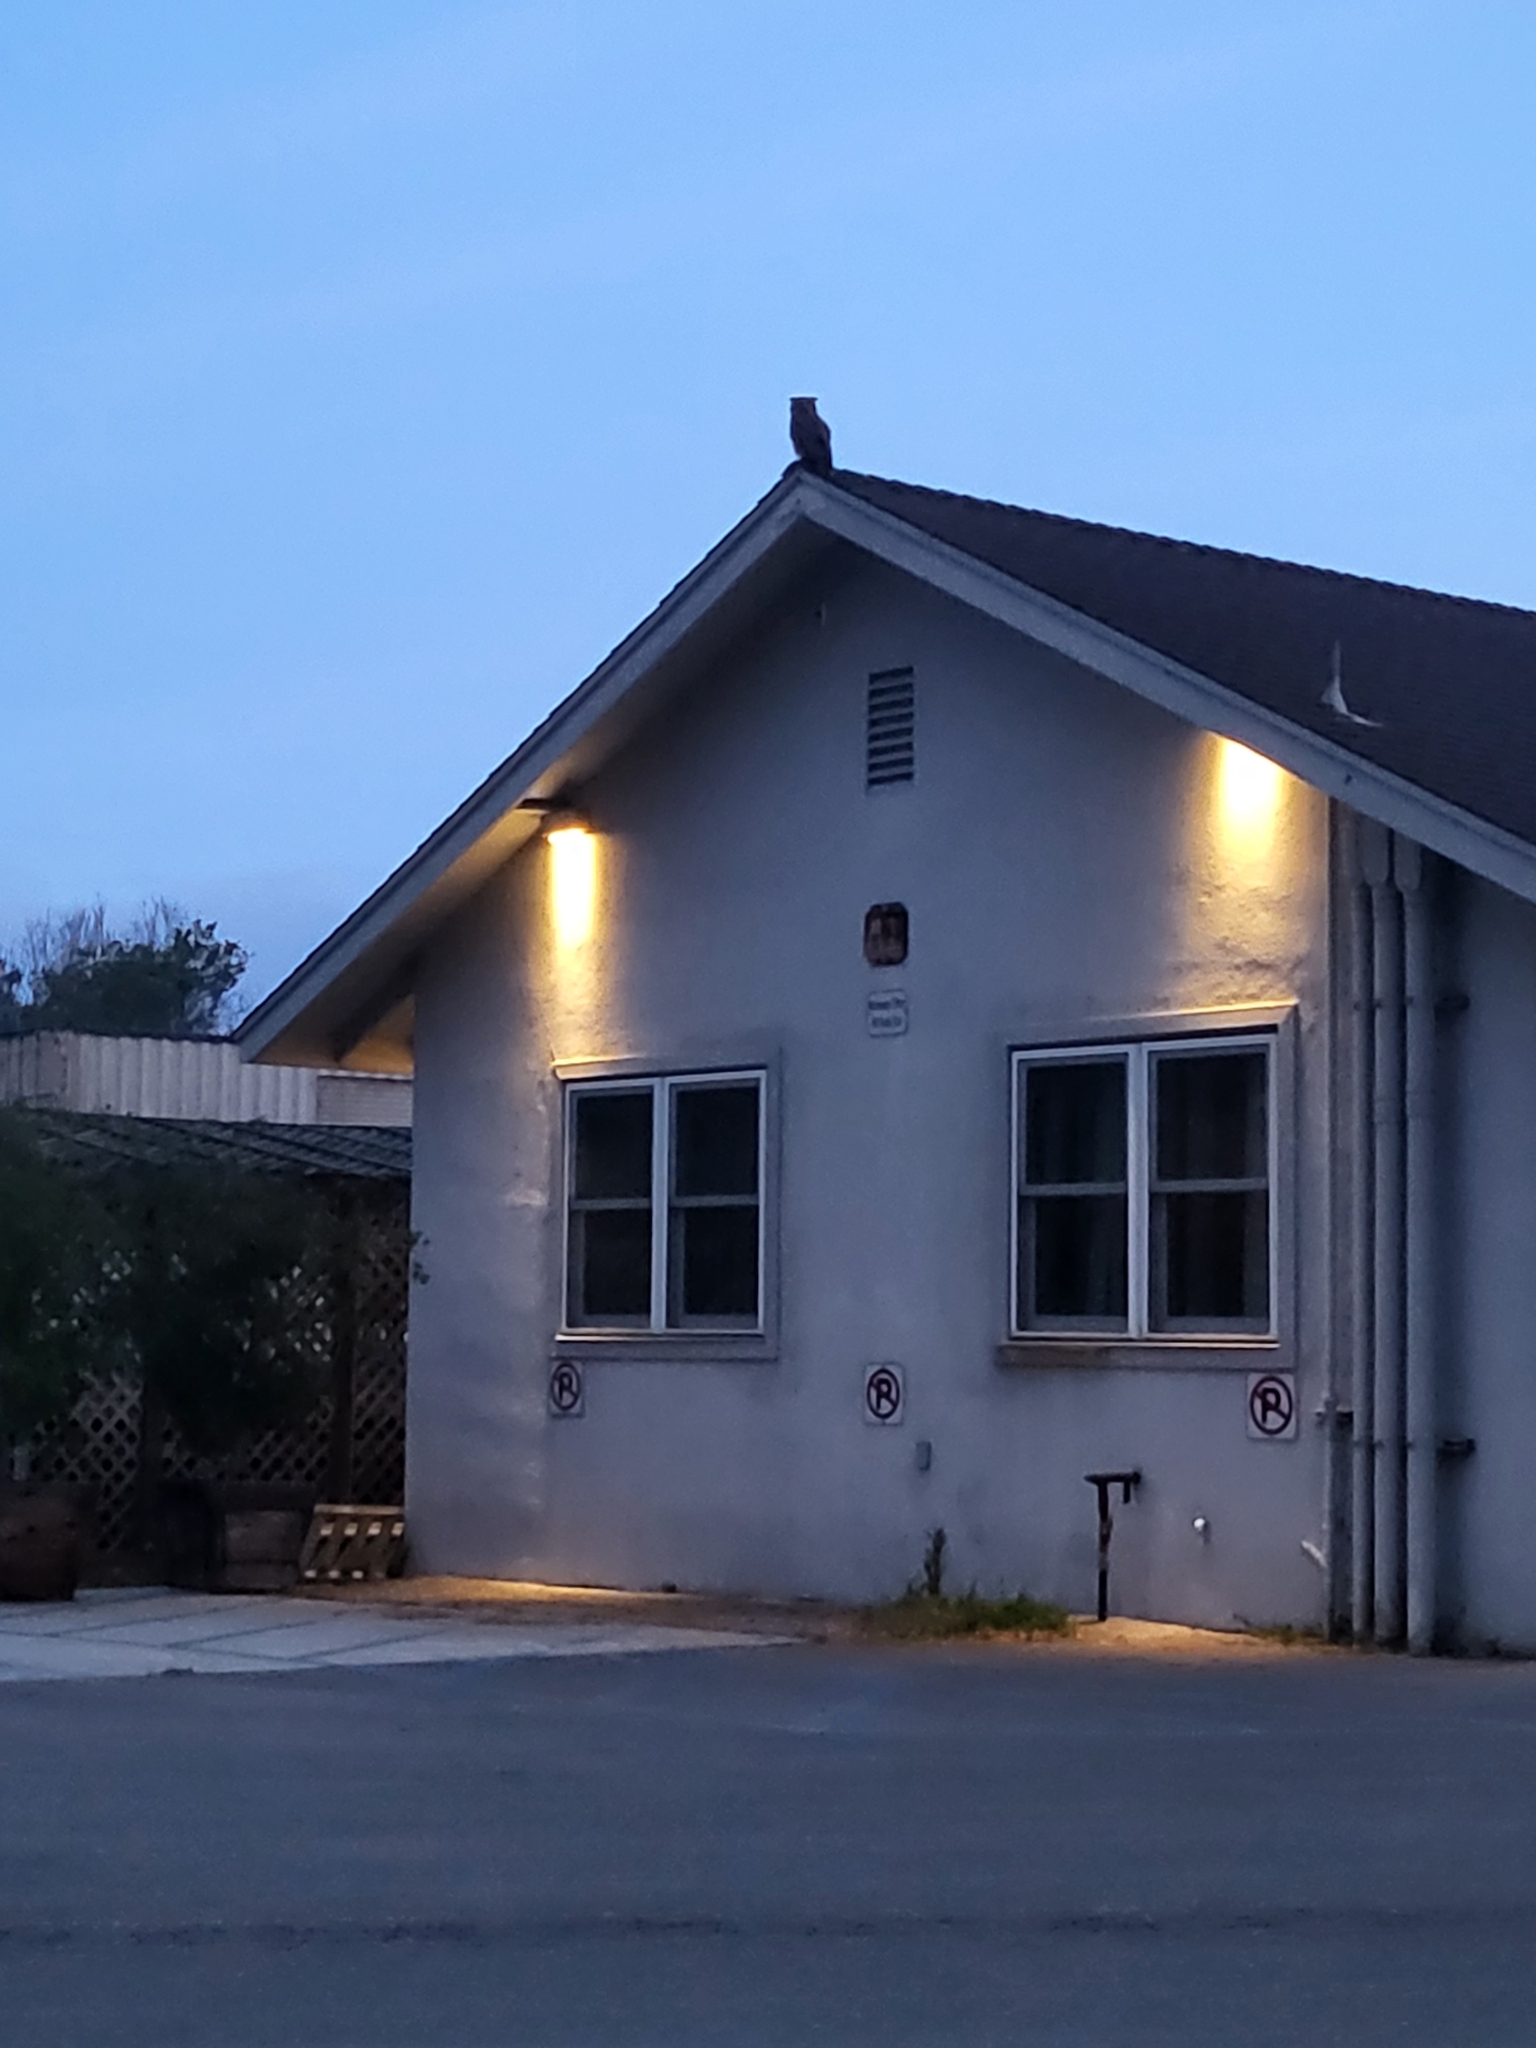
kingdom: Animalia
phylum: Chordata
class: Aves
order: Strigiformes
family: Strigidae
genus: Bubo
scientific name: Bubo virginianus
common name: Great horned owl
